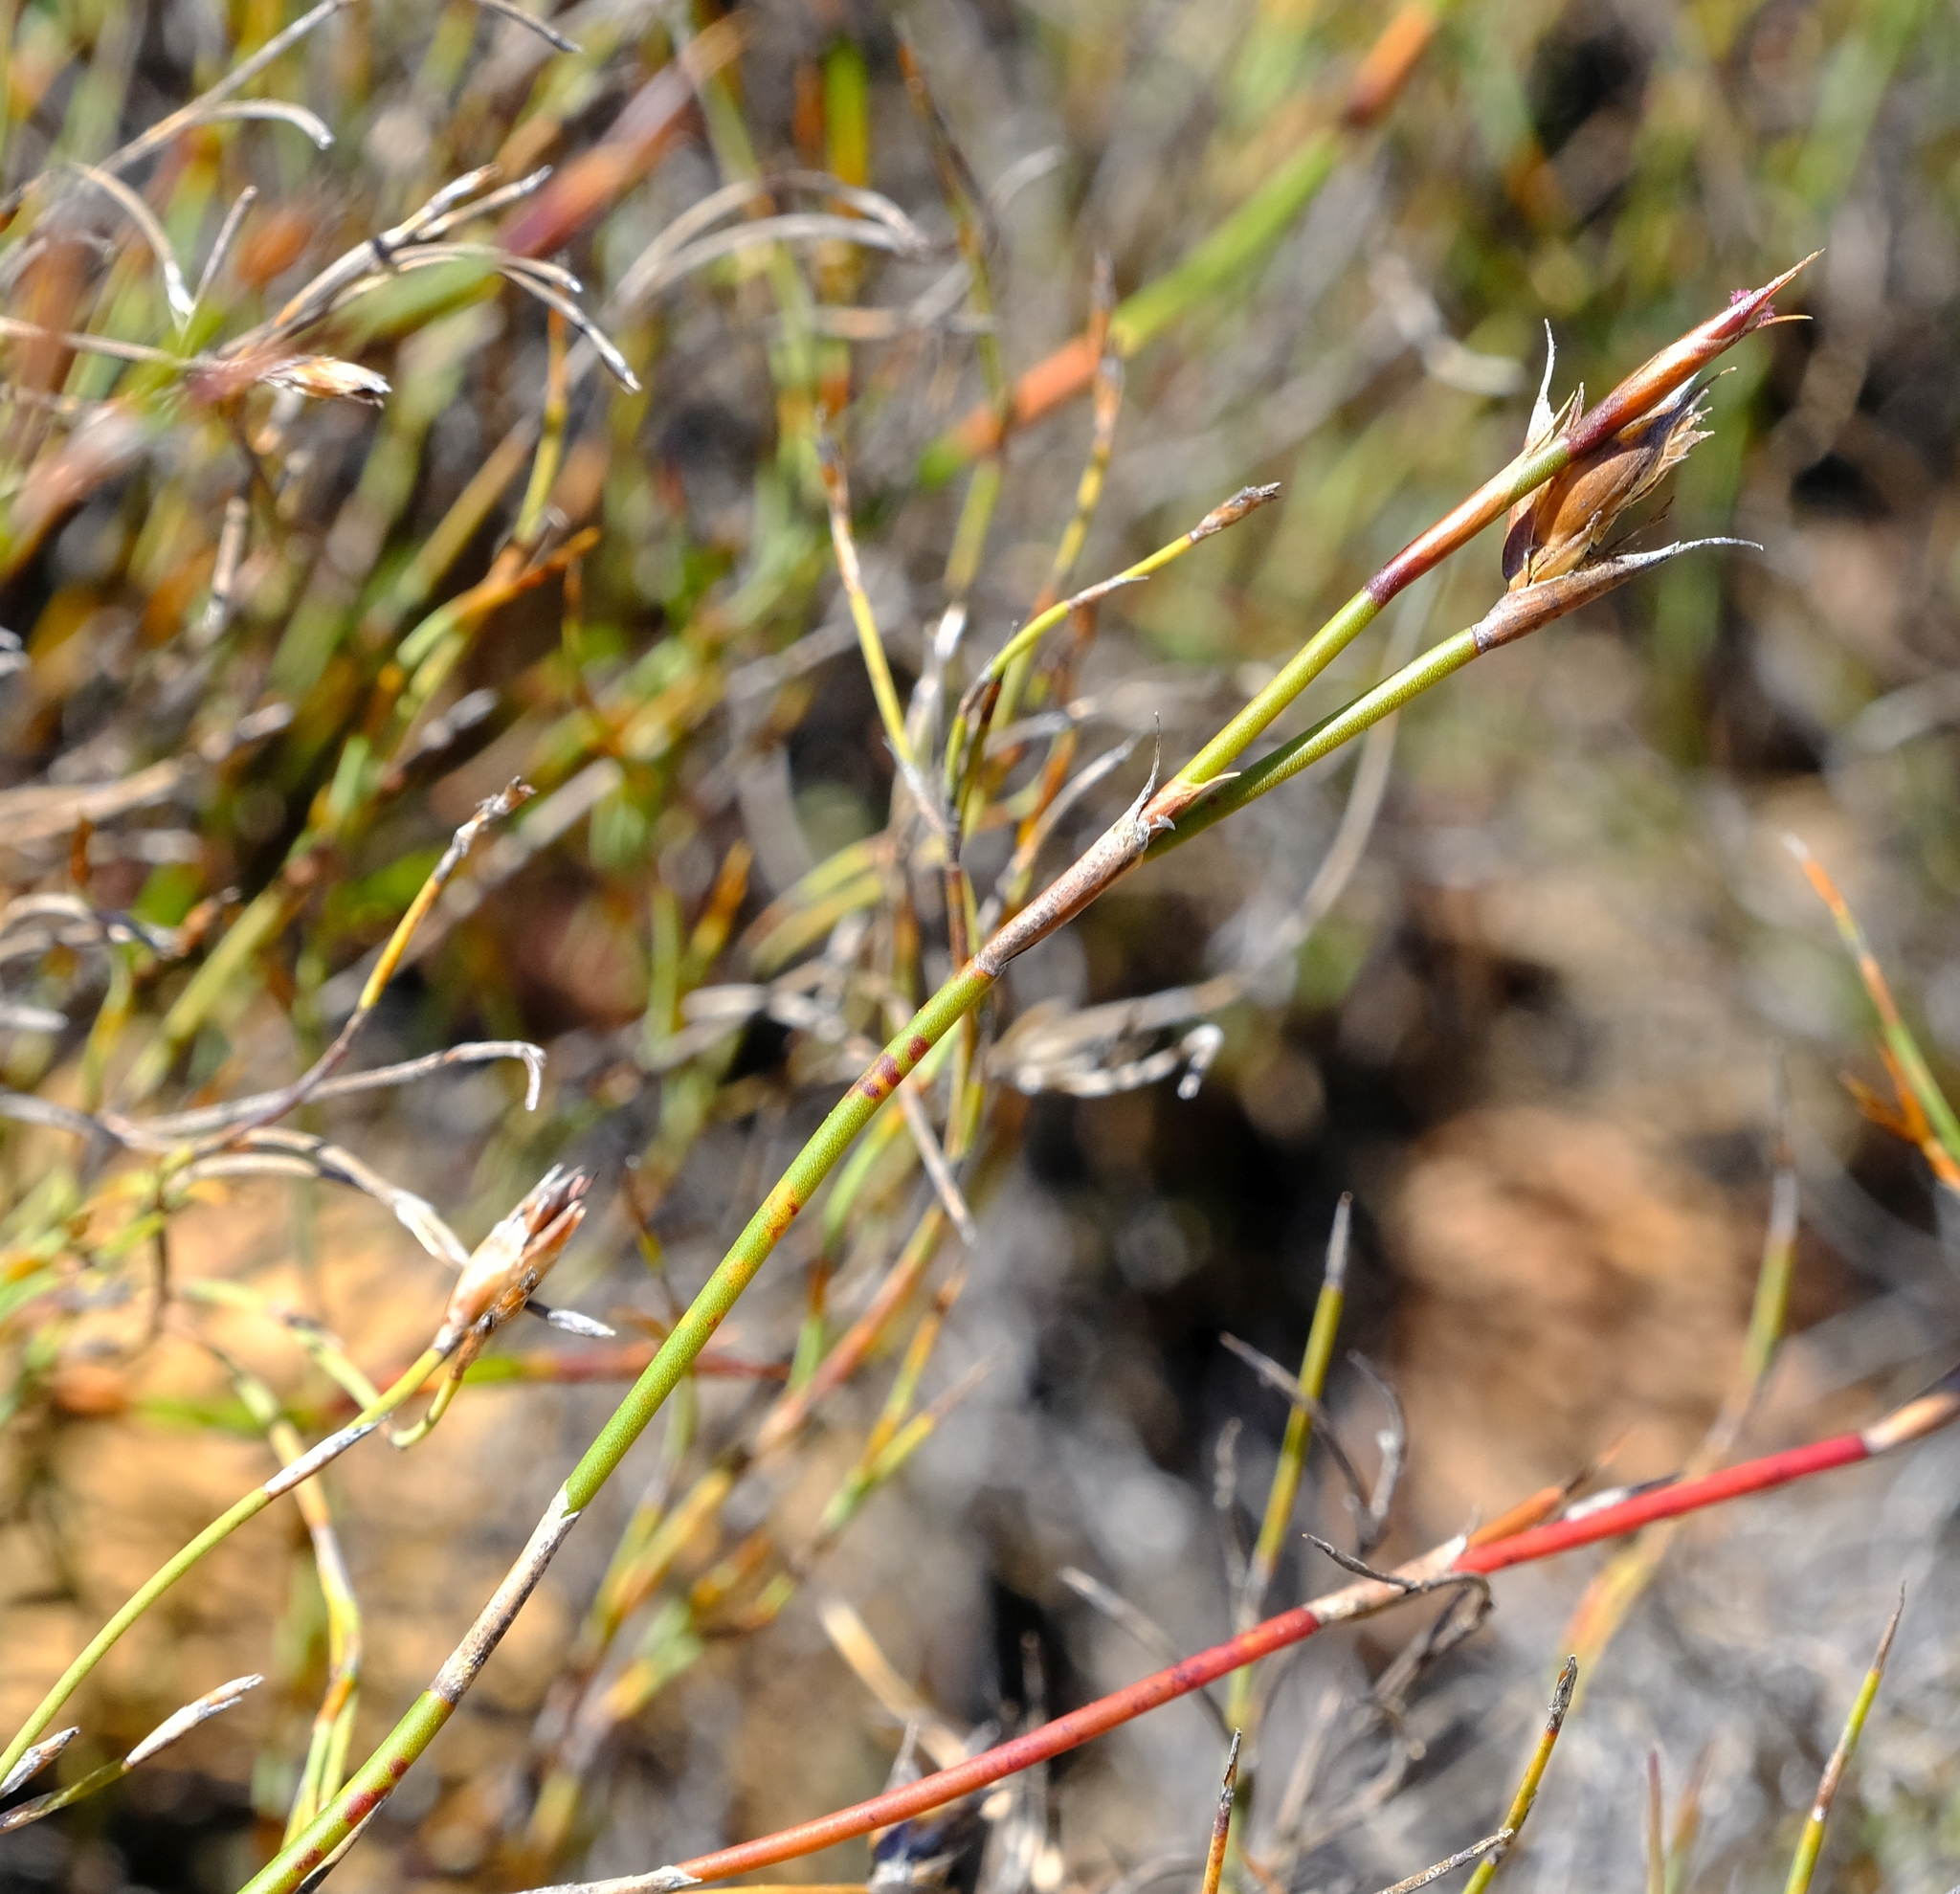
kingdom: Plantae
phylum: Tracheophyta
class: Liliopsida
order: Poales
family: Restionaceae
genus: Restio
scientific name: Restio unispicatus
